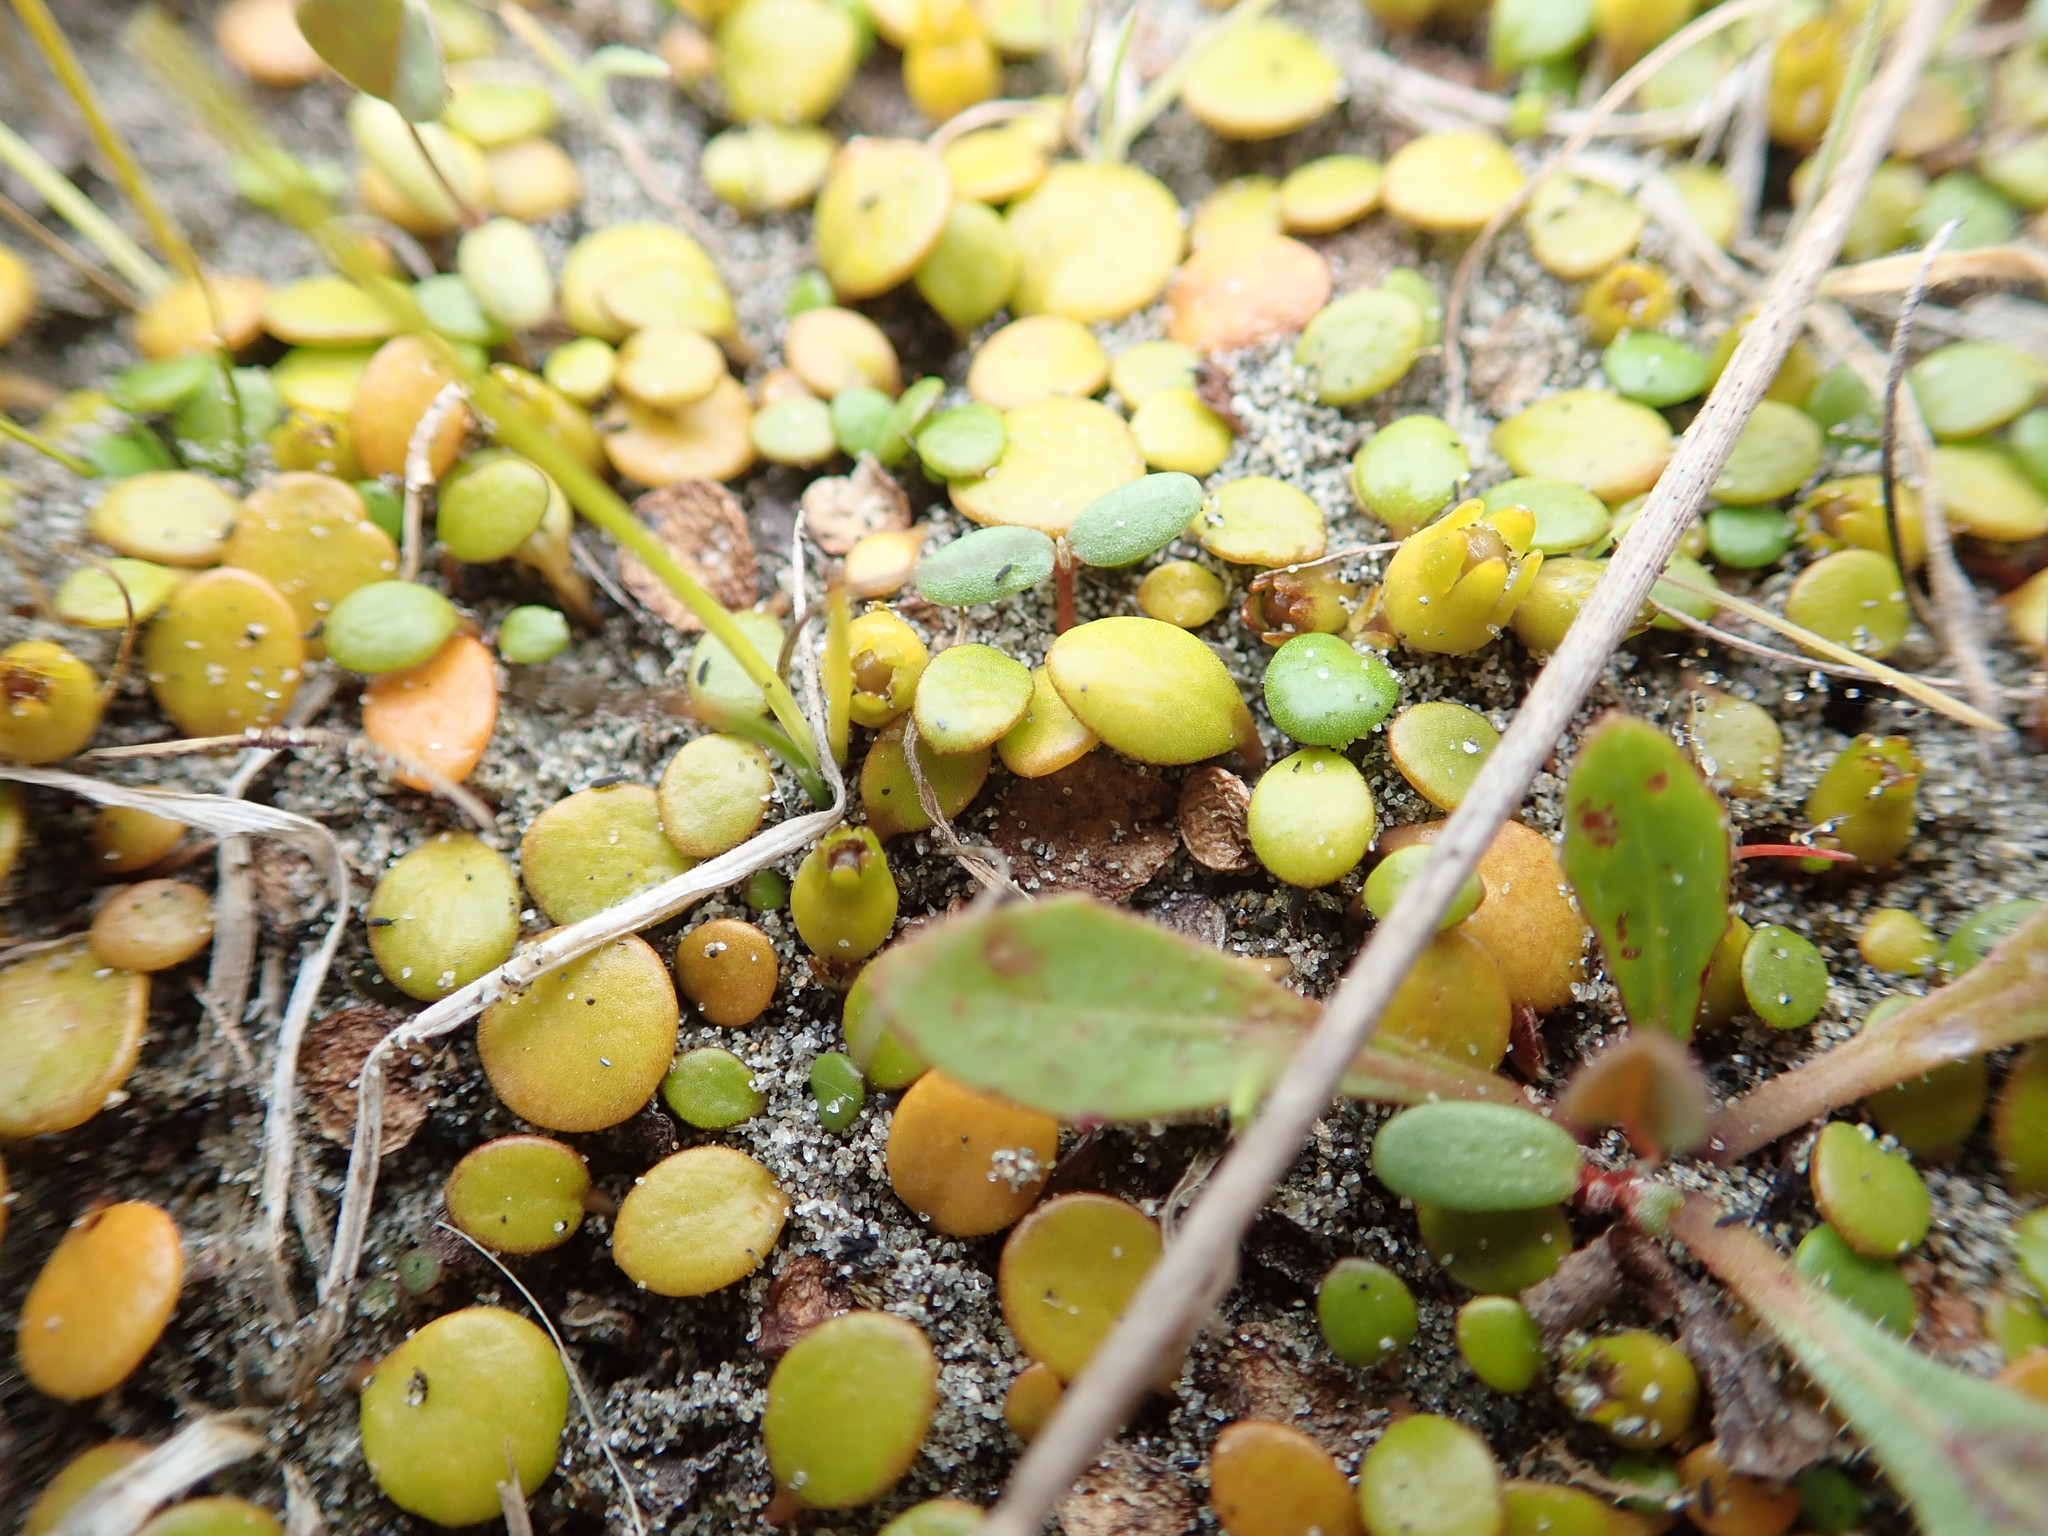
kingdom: Plantae
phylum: Tracheophyta
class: Magnoliopsida
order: Asterales
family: Goodeniaceae
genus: Goodenia
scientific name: Goodenia heenanii
